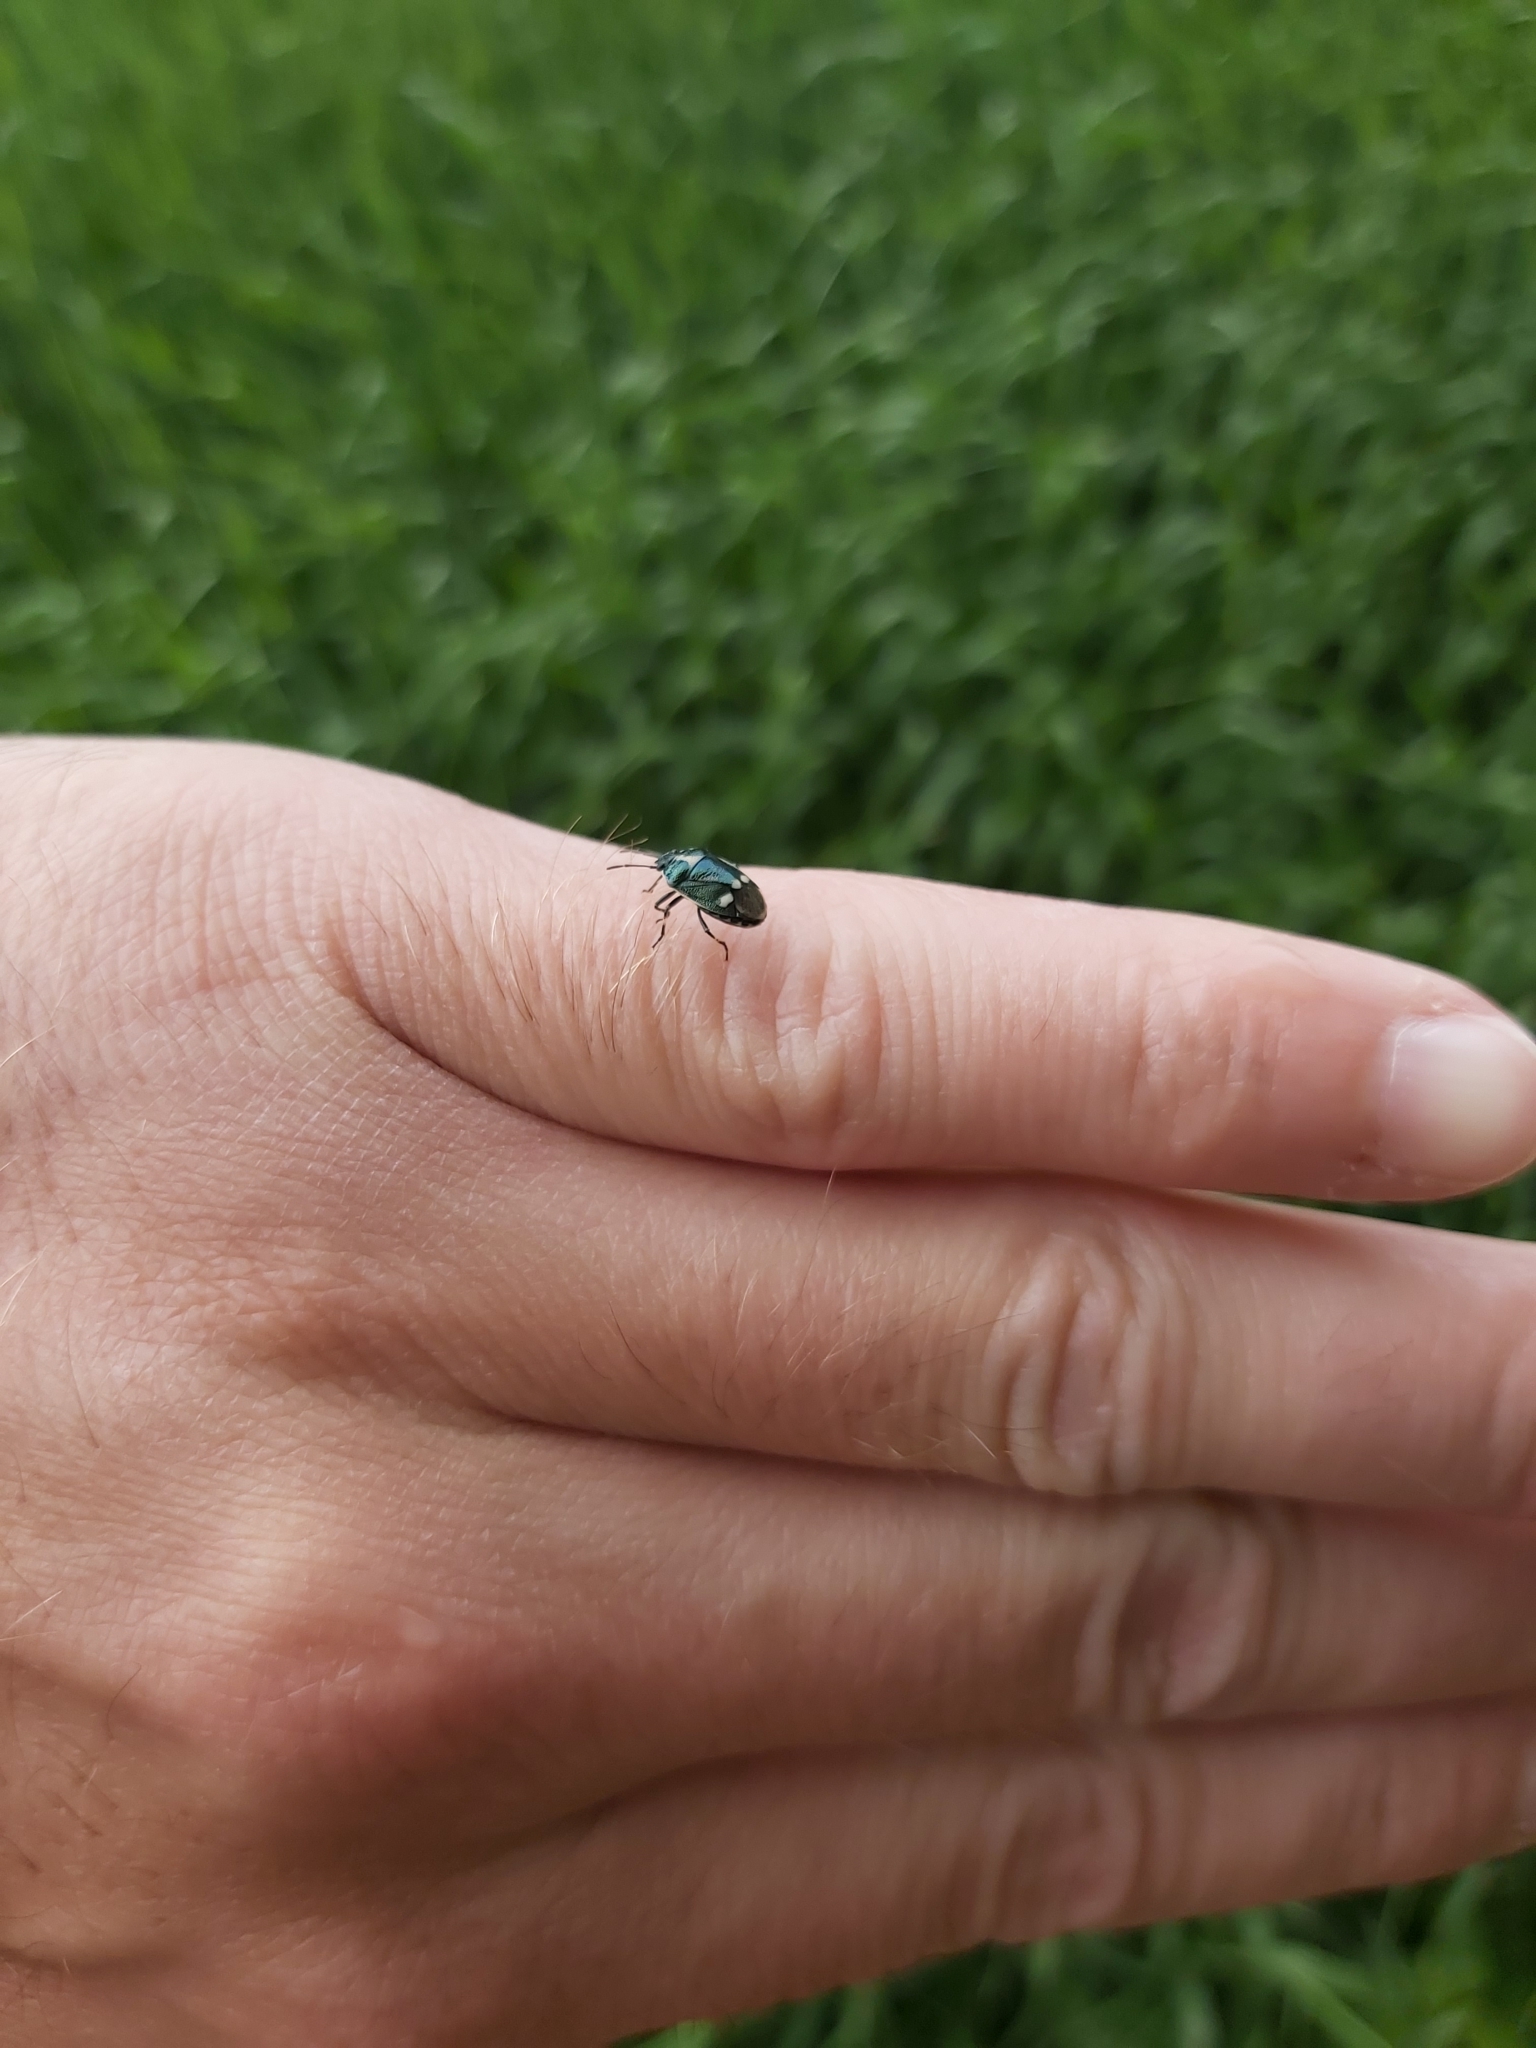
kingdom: Animalia
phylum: Arthropoda
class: Insecta
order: Hemiptera
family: Pentatomidae
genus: Eurydema
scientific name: Eurydema oleracea
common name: Cabbage bug
